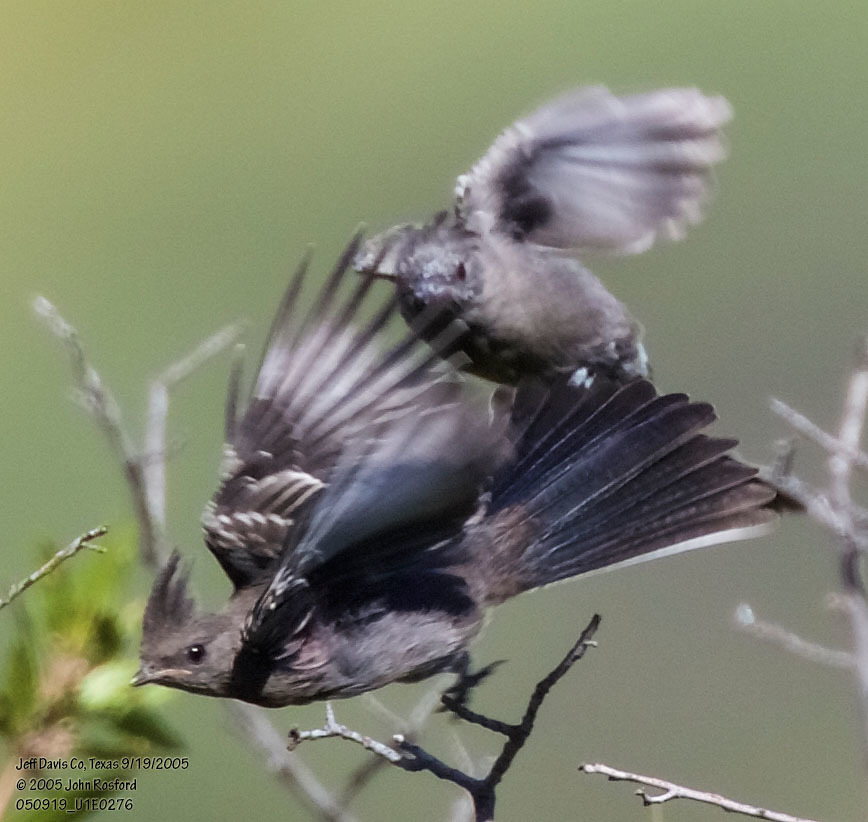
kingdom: Animalia
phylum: Chordata
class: Aves
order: Passeriformes
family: Ptilogonatidae
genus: Phainopepla
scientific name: Phainopepla nitens
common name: Phainopepla
